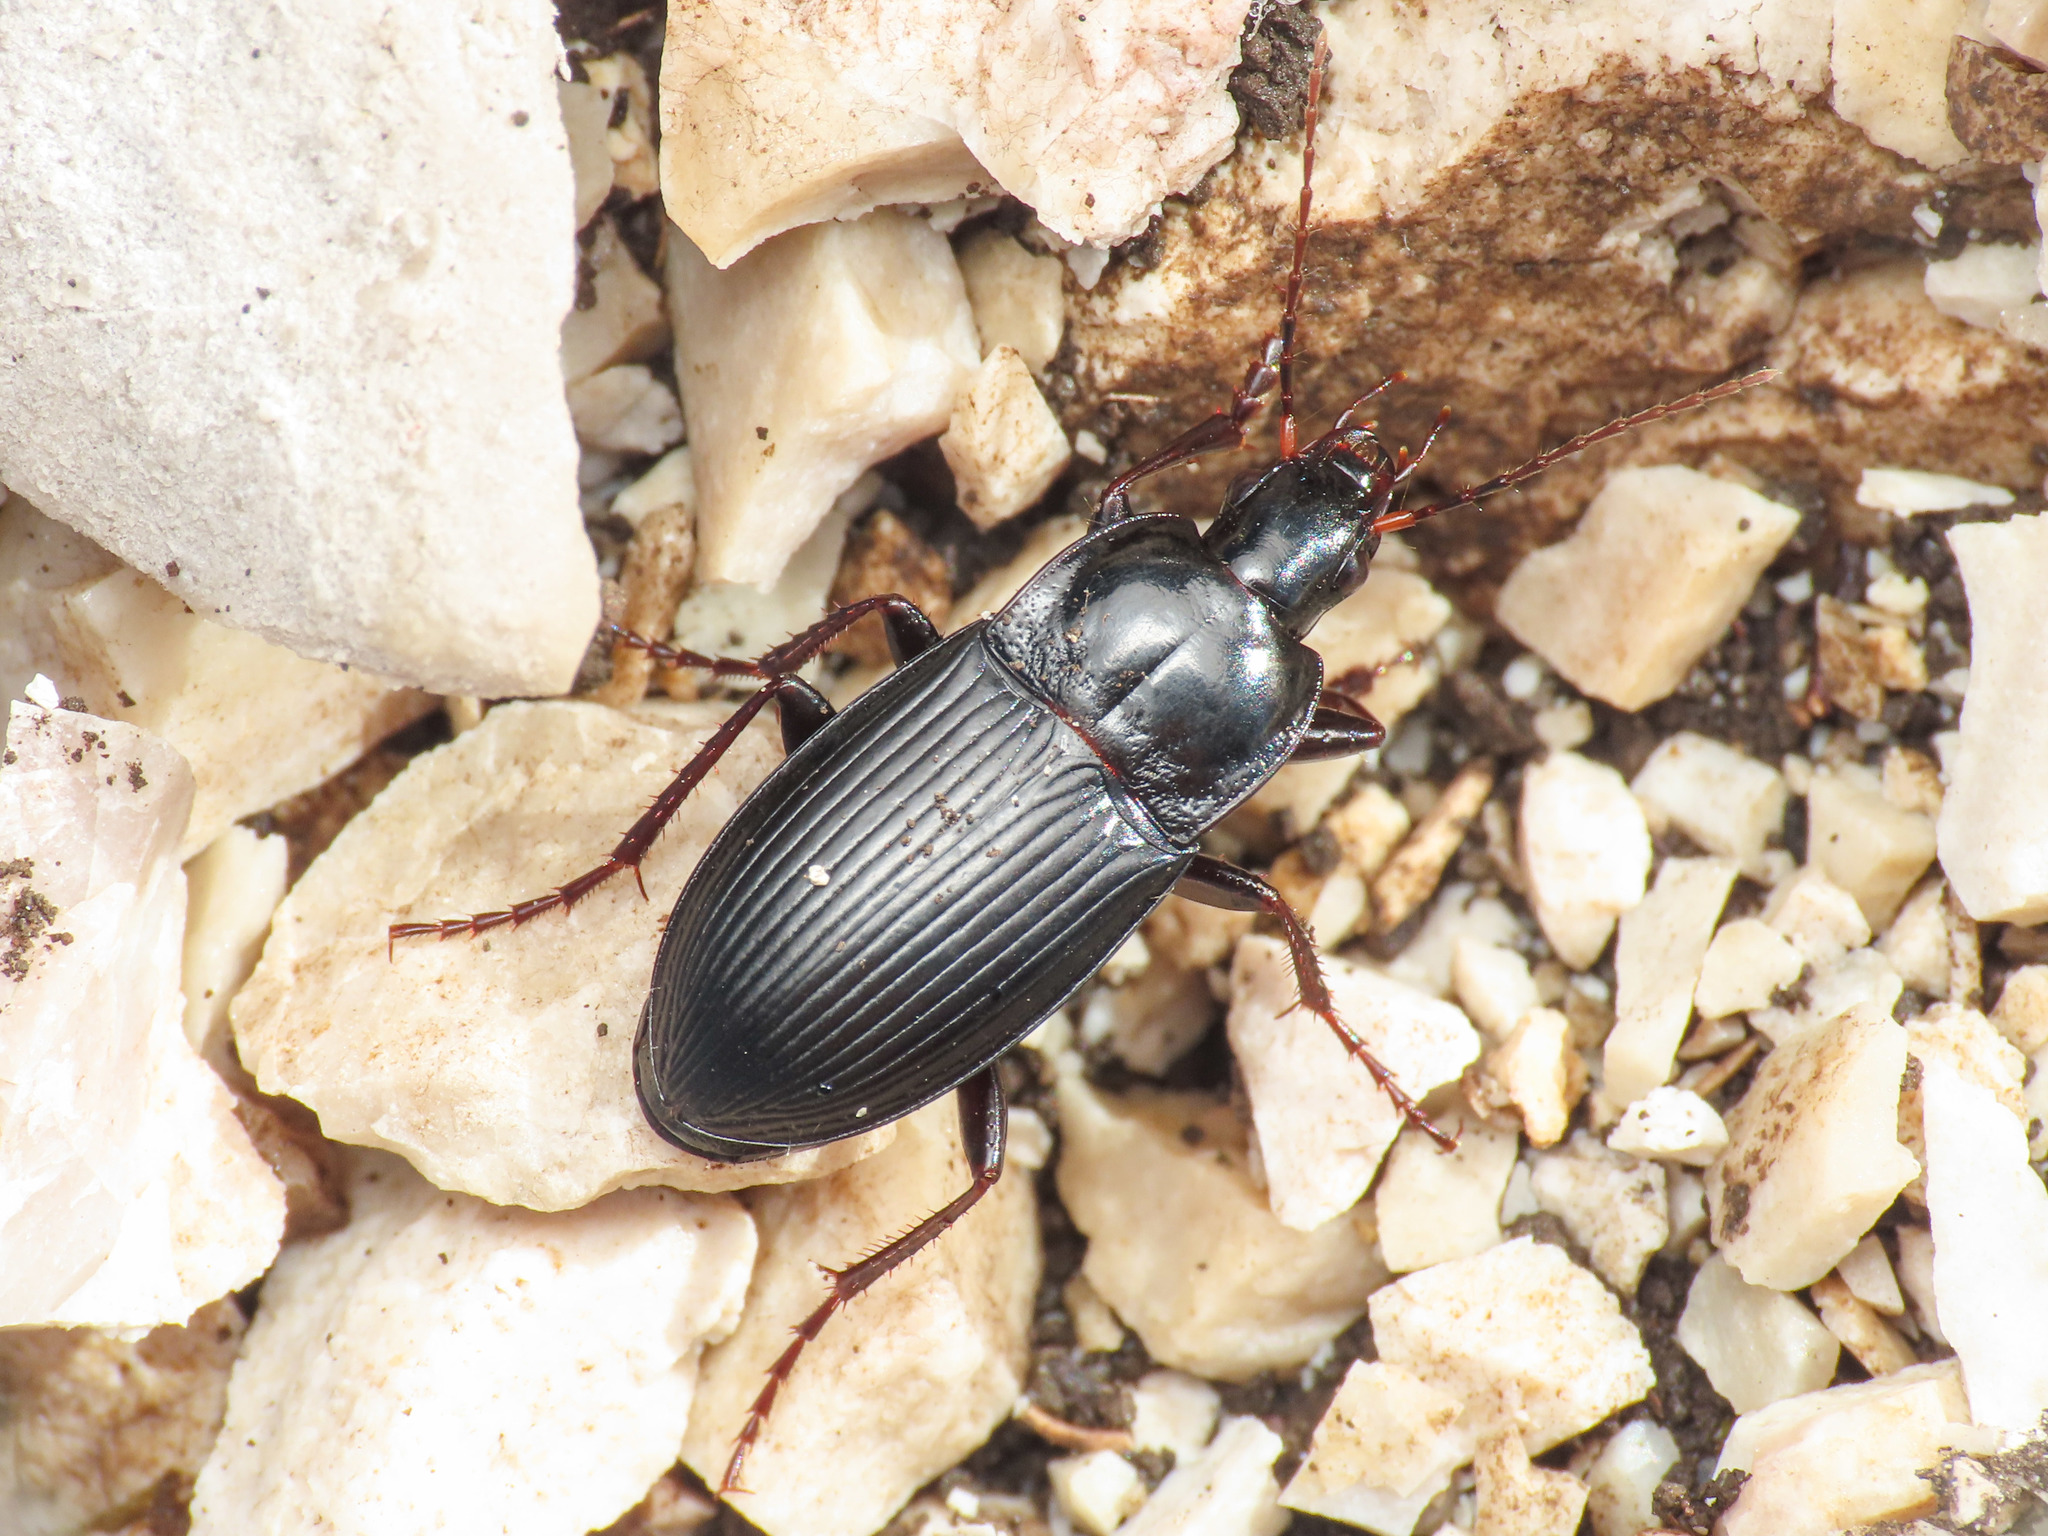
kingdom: Animalia
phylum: Arthropoda
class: Insecta
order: Coleoptera
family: Carabidae
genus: Calathus
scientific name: Calathus fracassii
